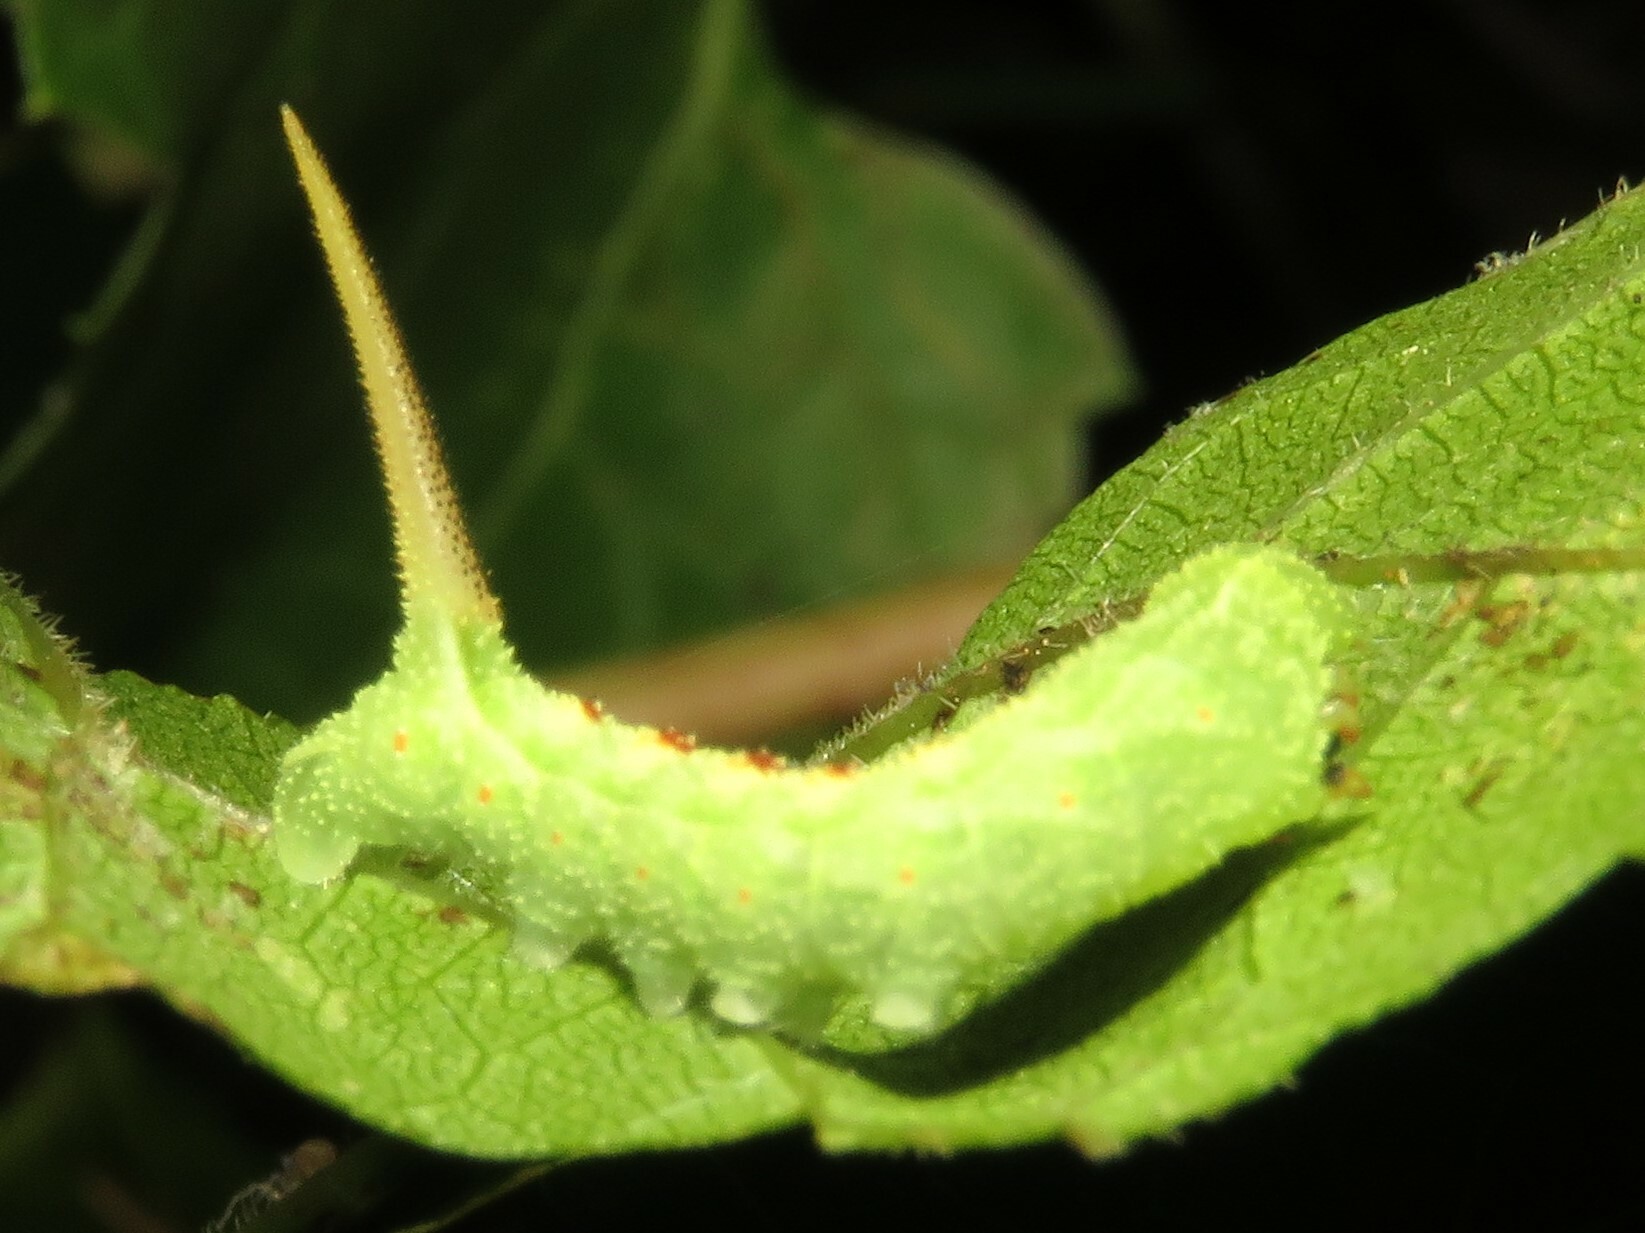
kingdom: Animalia
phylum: Arthropoda
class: Insecta
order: Lepidoptera
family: Sphingidae
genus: Darapsa
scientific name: Darapsa myron
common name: Hog sphinx
